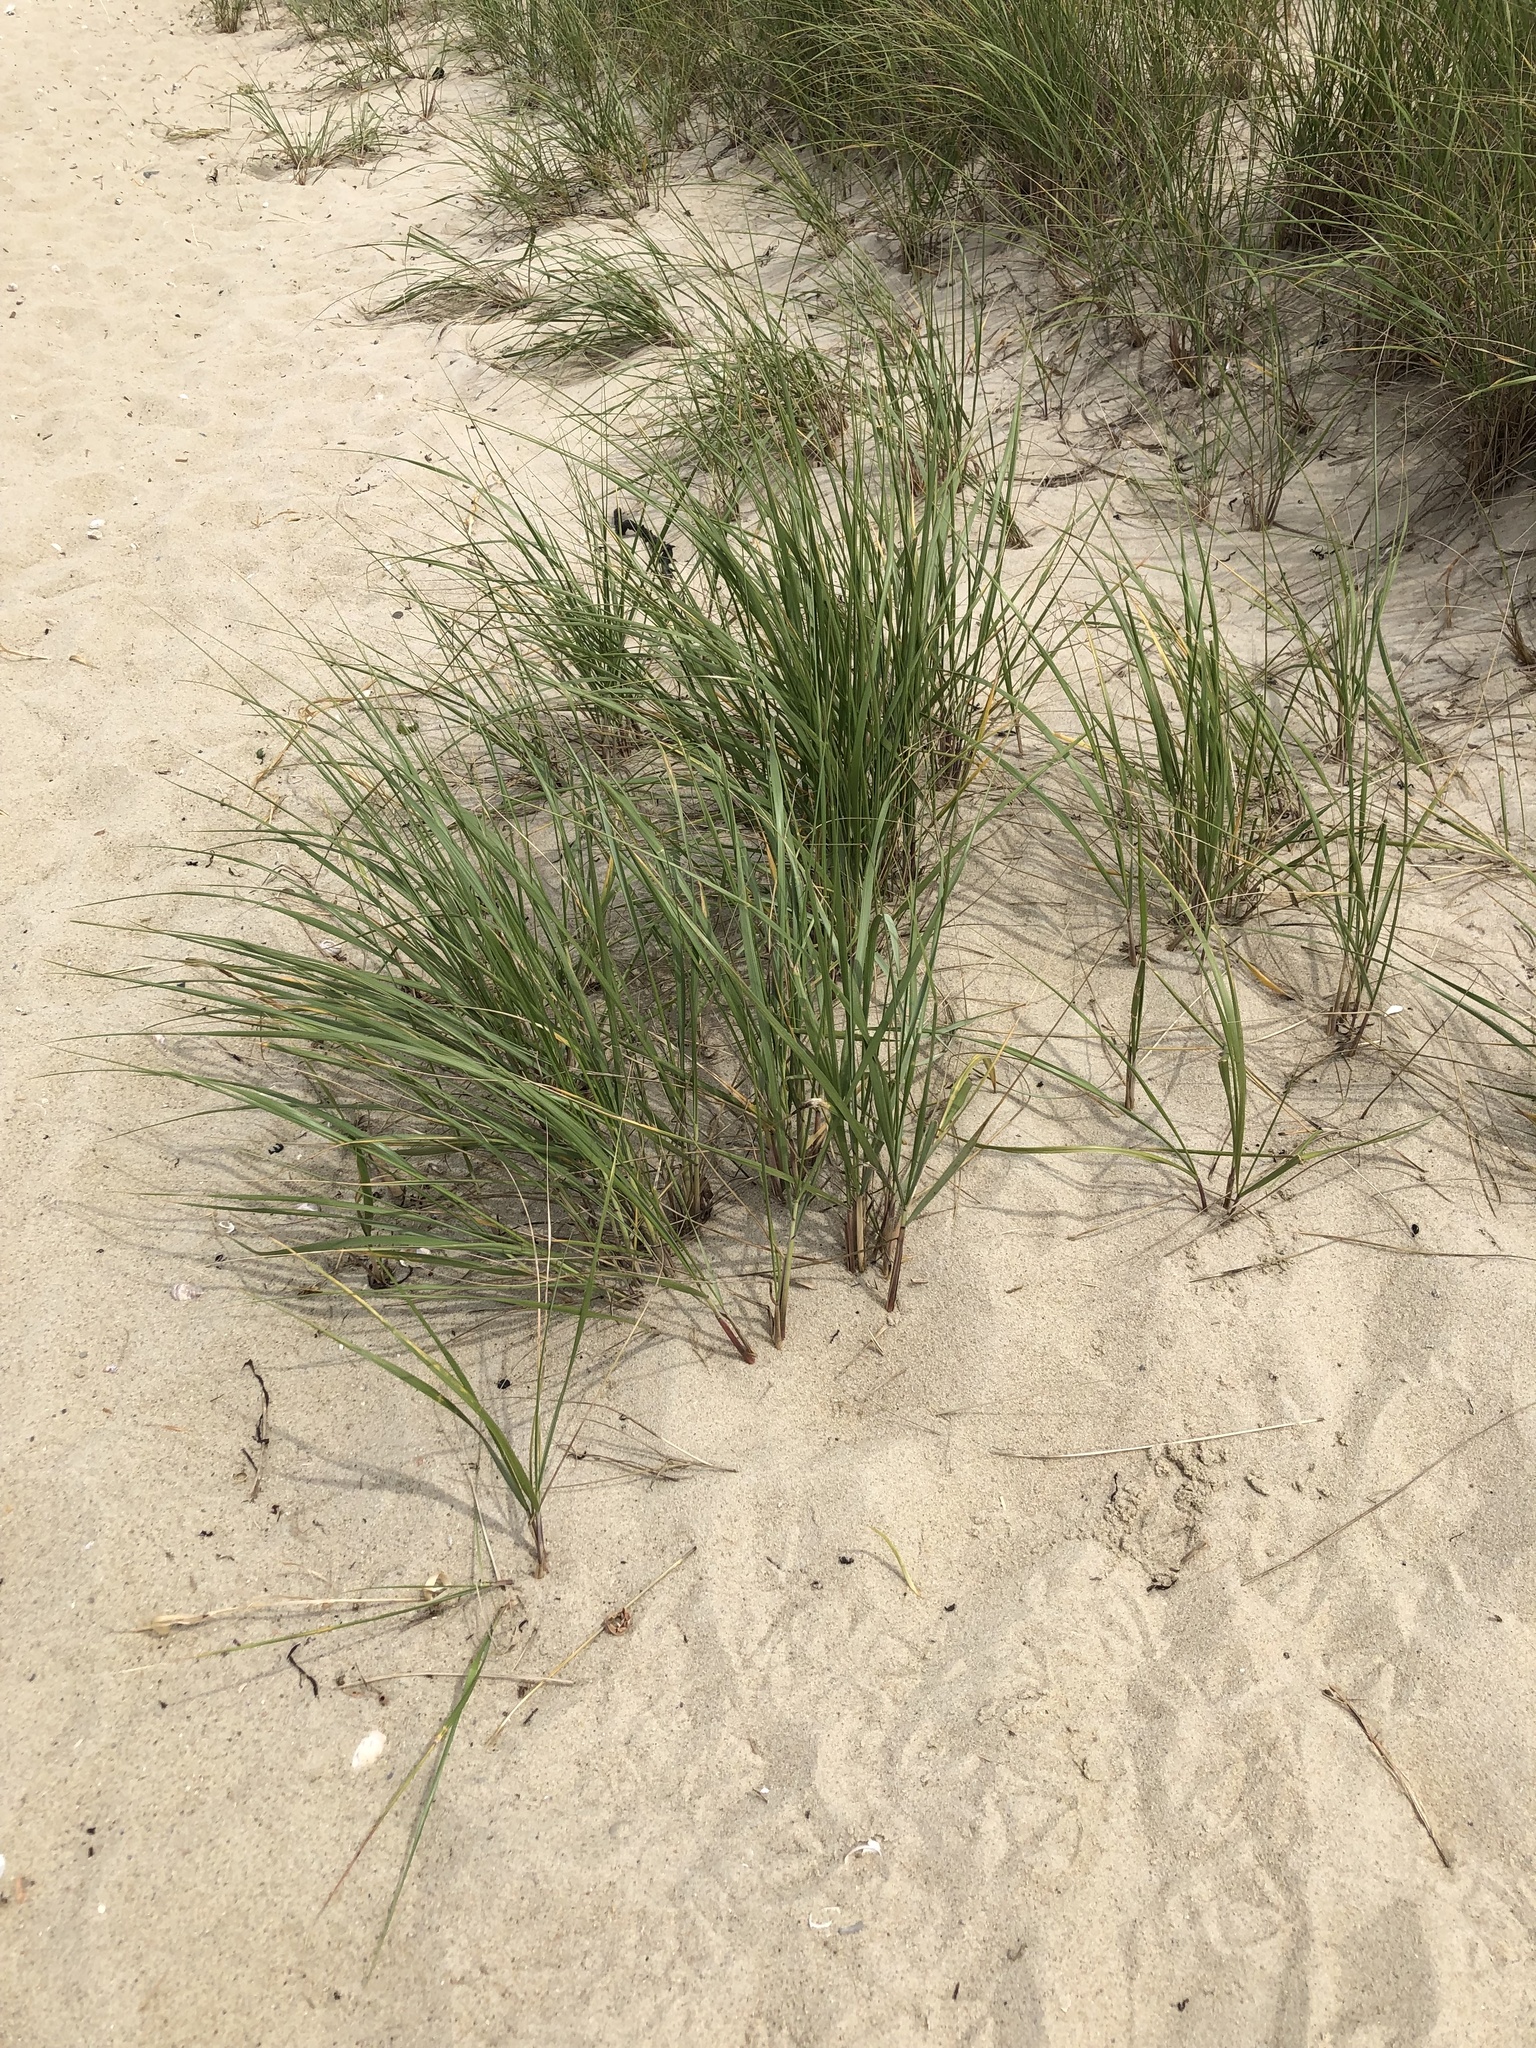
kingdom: Plantae
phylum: Tracheophyta
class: Liliopsida
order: Poales
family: Poaceae
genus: Calamagrostis
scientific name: Calamagrostis breviligulata
